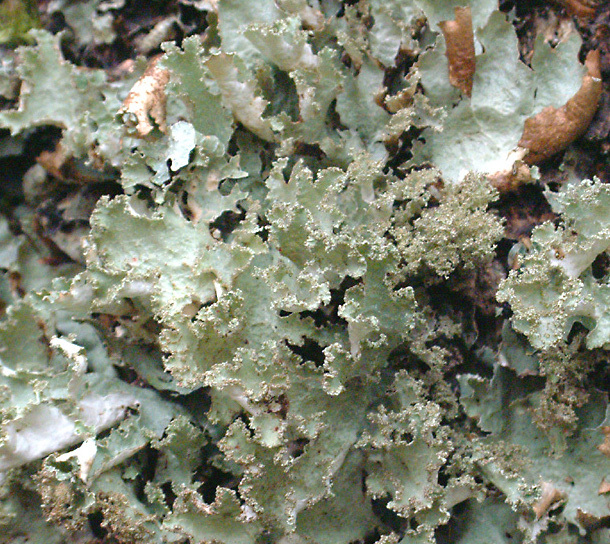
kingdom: Fungi
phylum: Ascomycota
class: Lecanoromycetes
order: Lecanorales
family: Parmeliaceae
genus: Platismatia
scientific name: Platismatia glauca
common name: Varied rag lichen
